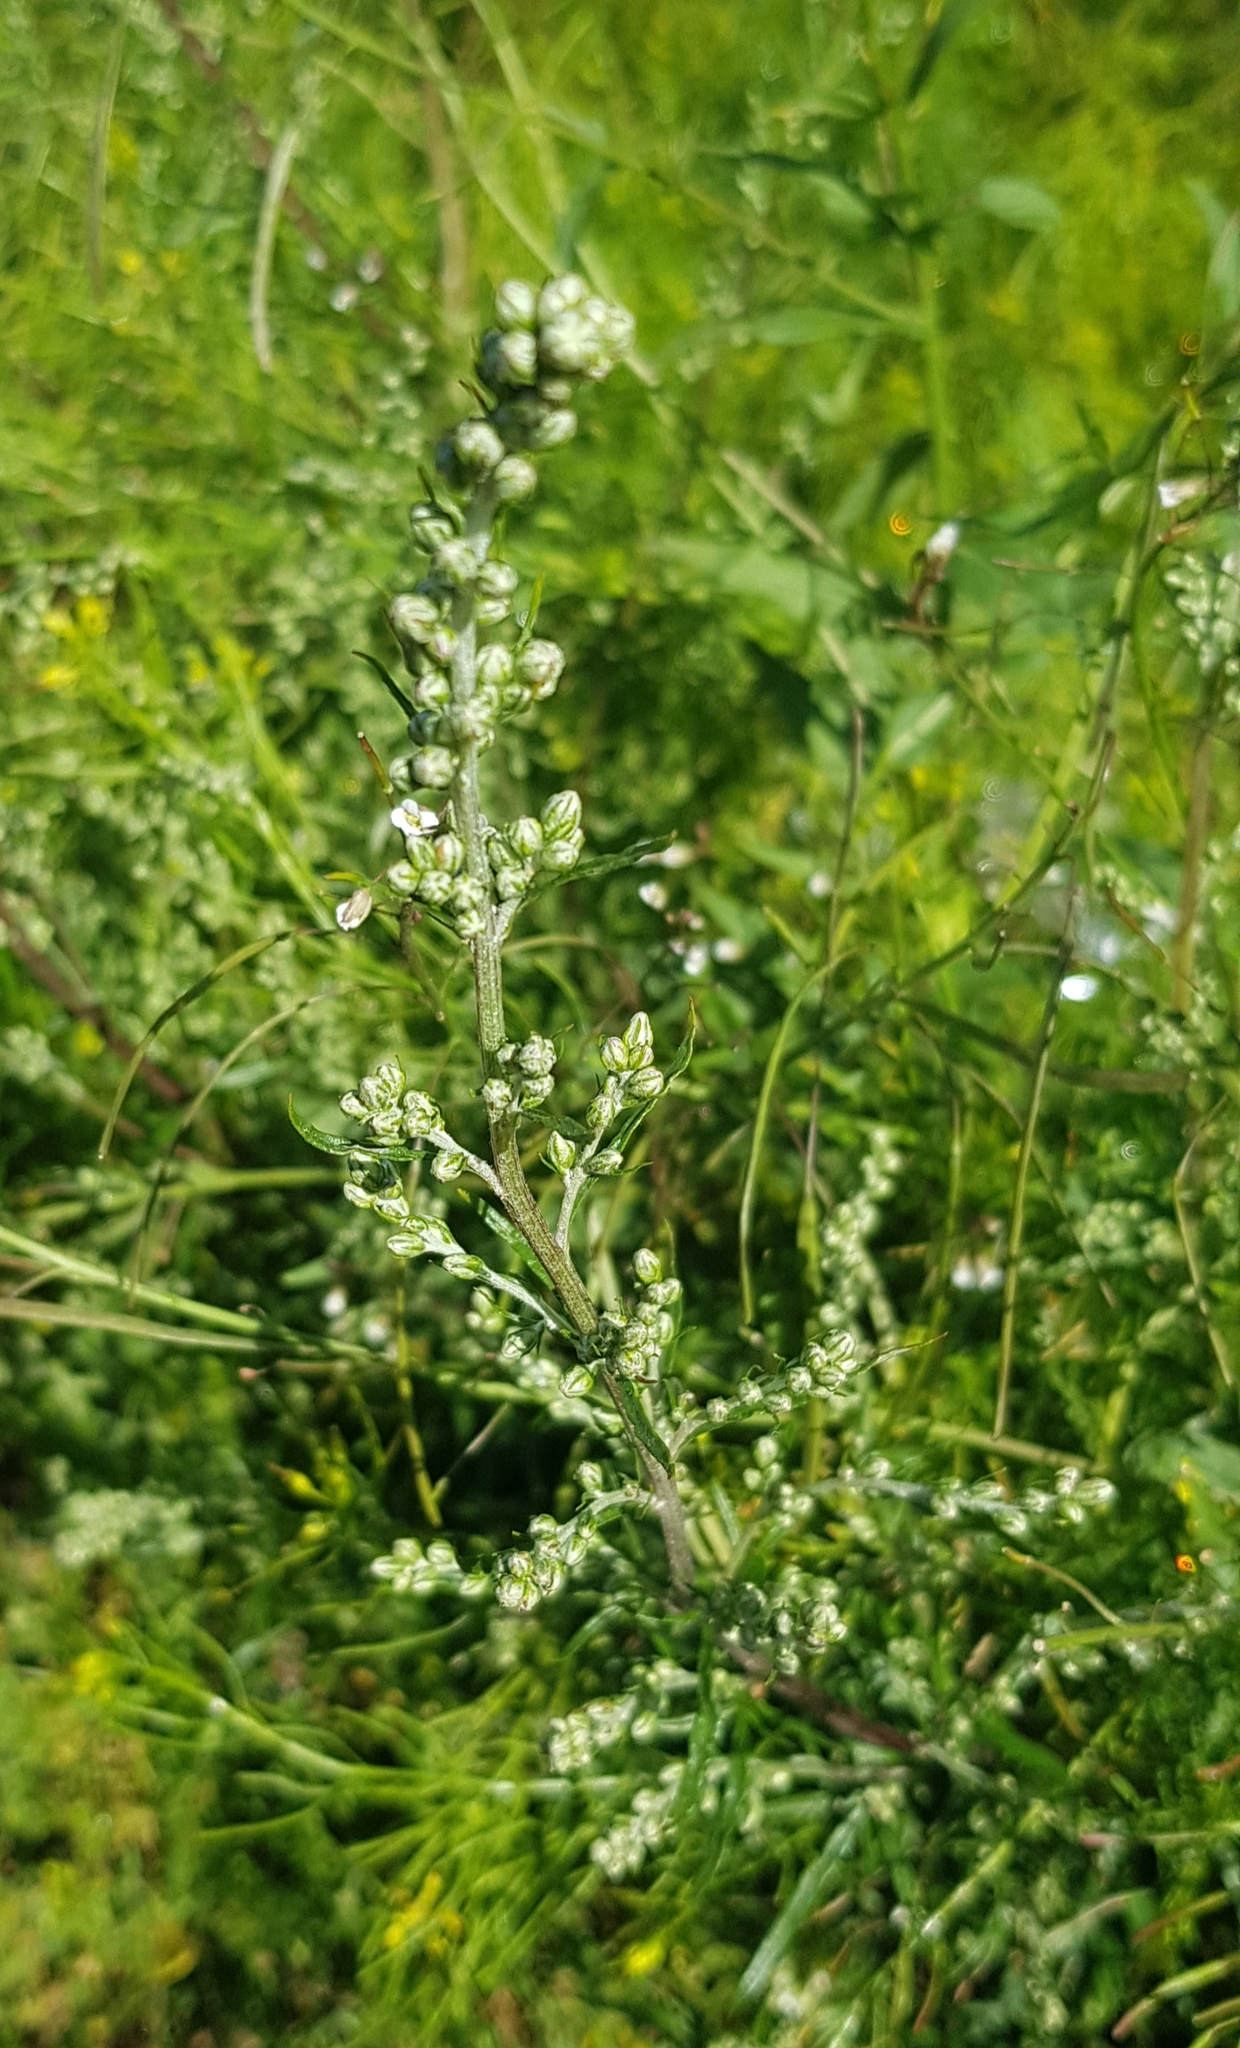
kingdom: Plantae
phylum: Tracheophyta
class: Magnoliopsida
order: Asterales
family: Asteraceae
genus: Artemisia
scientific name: Artemisia vulgaris
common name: Mugwort
